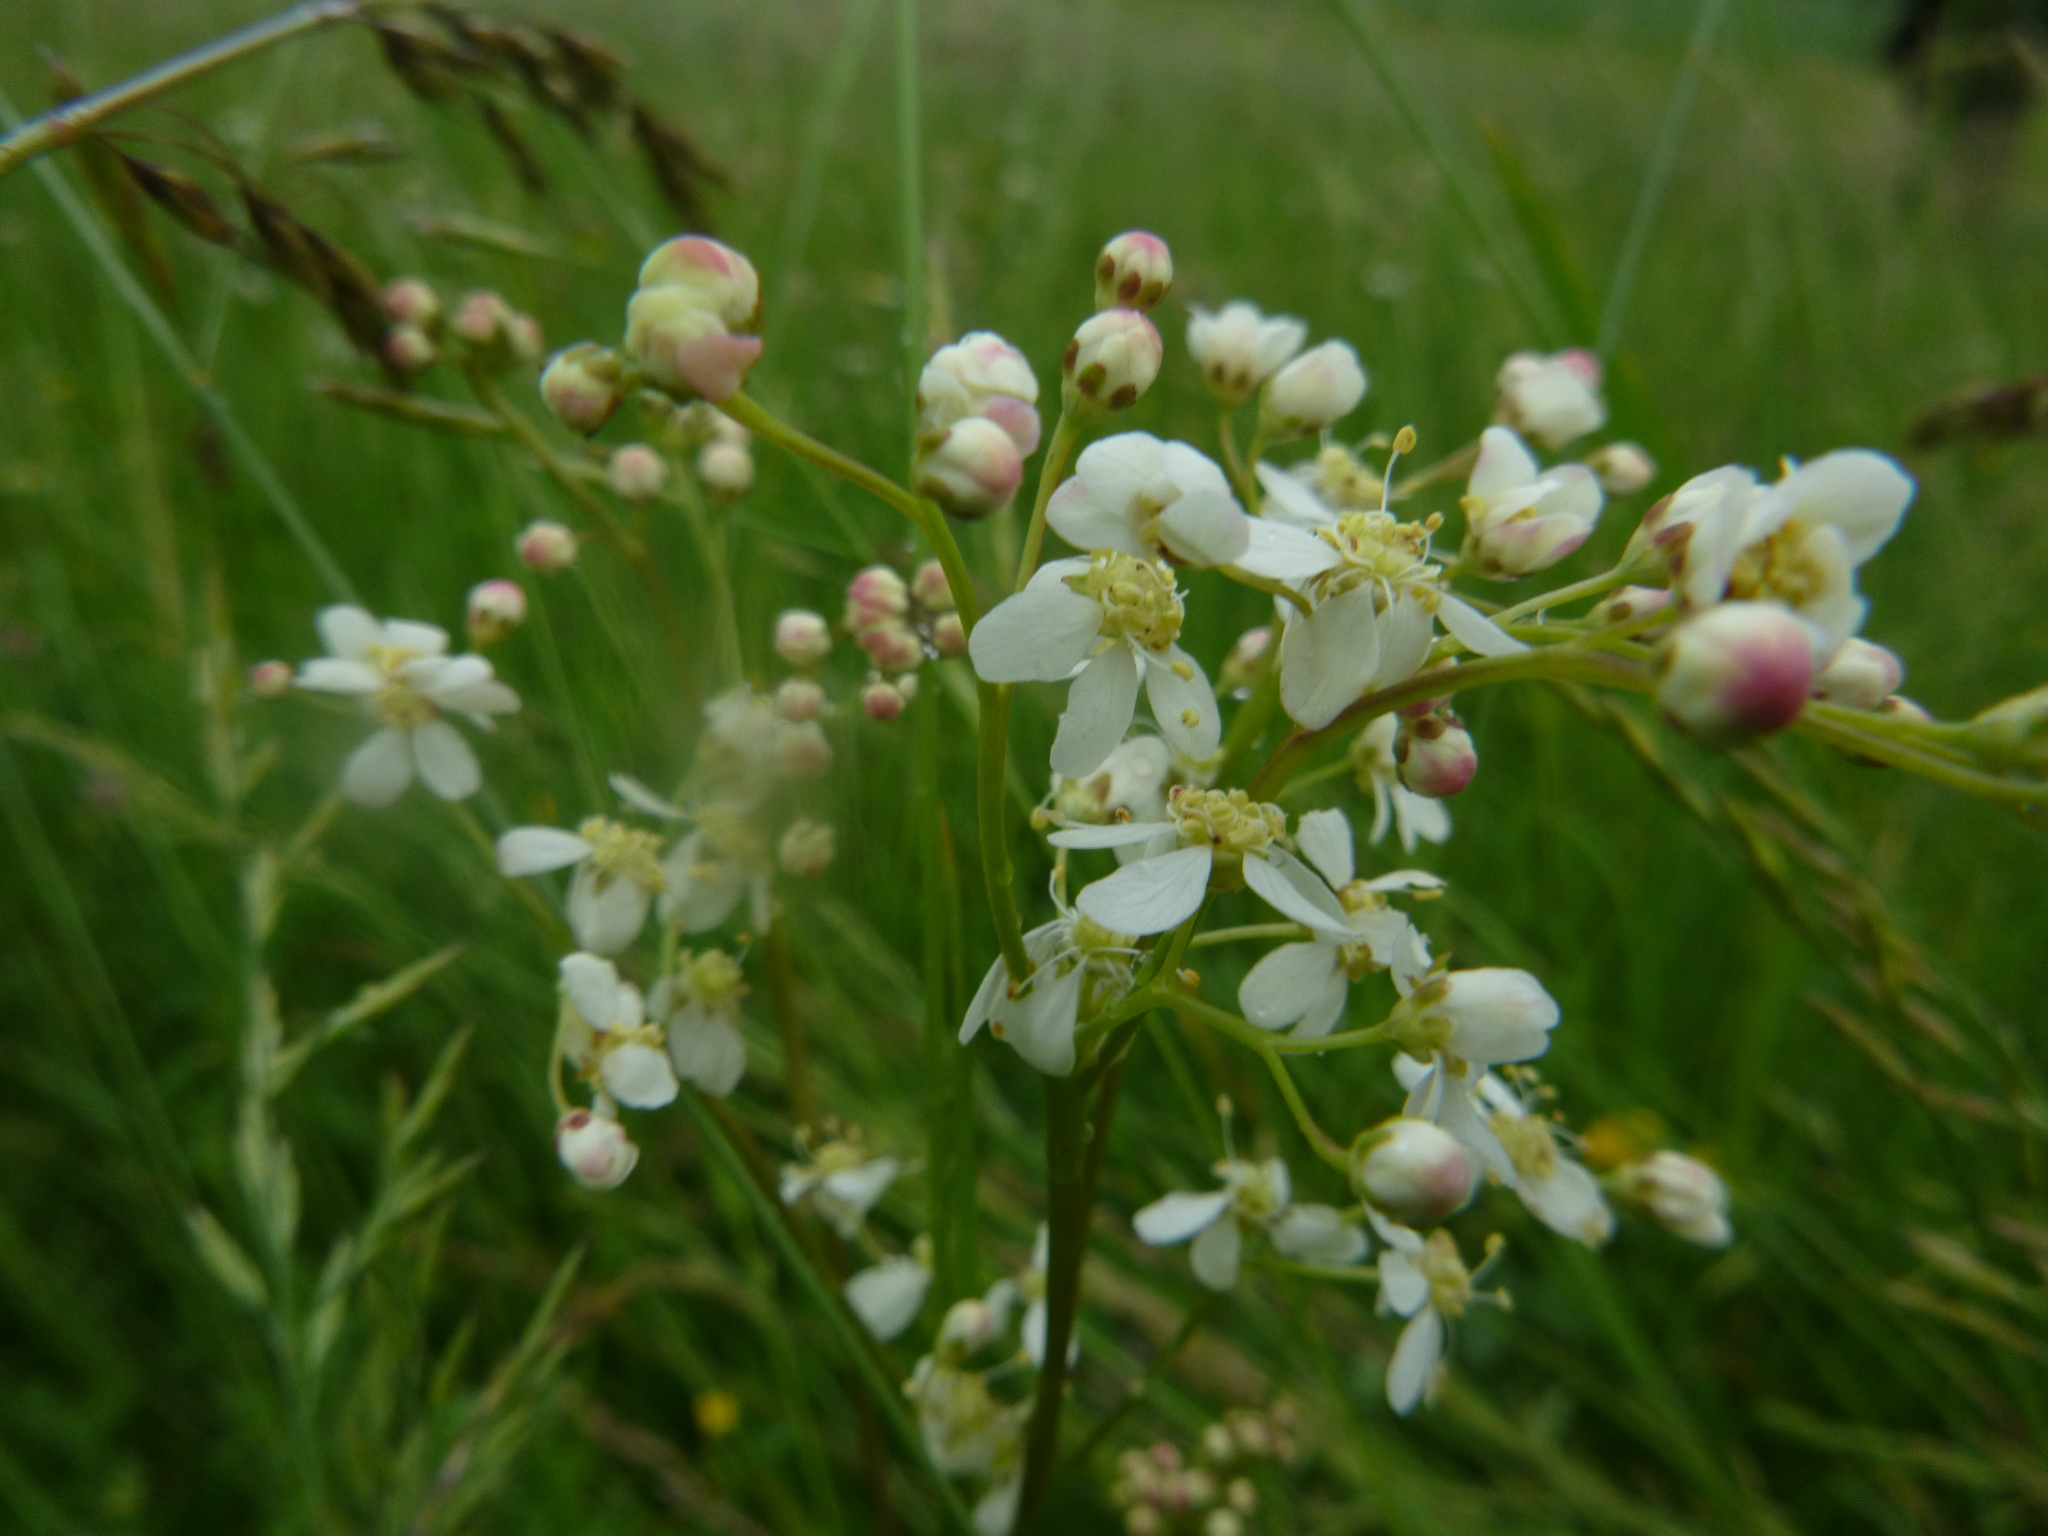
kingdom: Plantae
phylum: Tracheophyta
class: Magnoliopsida
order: Rosales
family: Rosaceae
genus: Filipendula
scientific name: Filipendula vulgaris
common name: Dropwort
